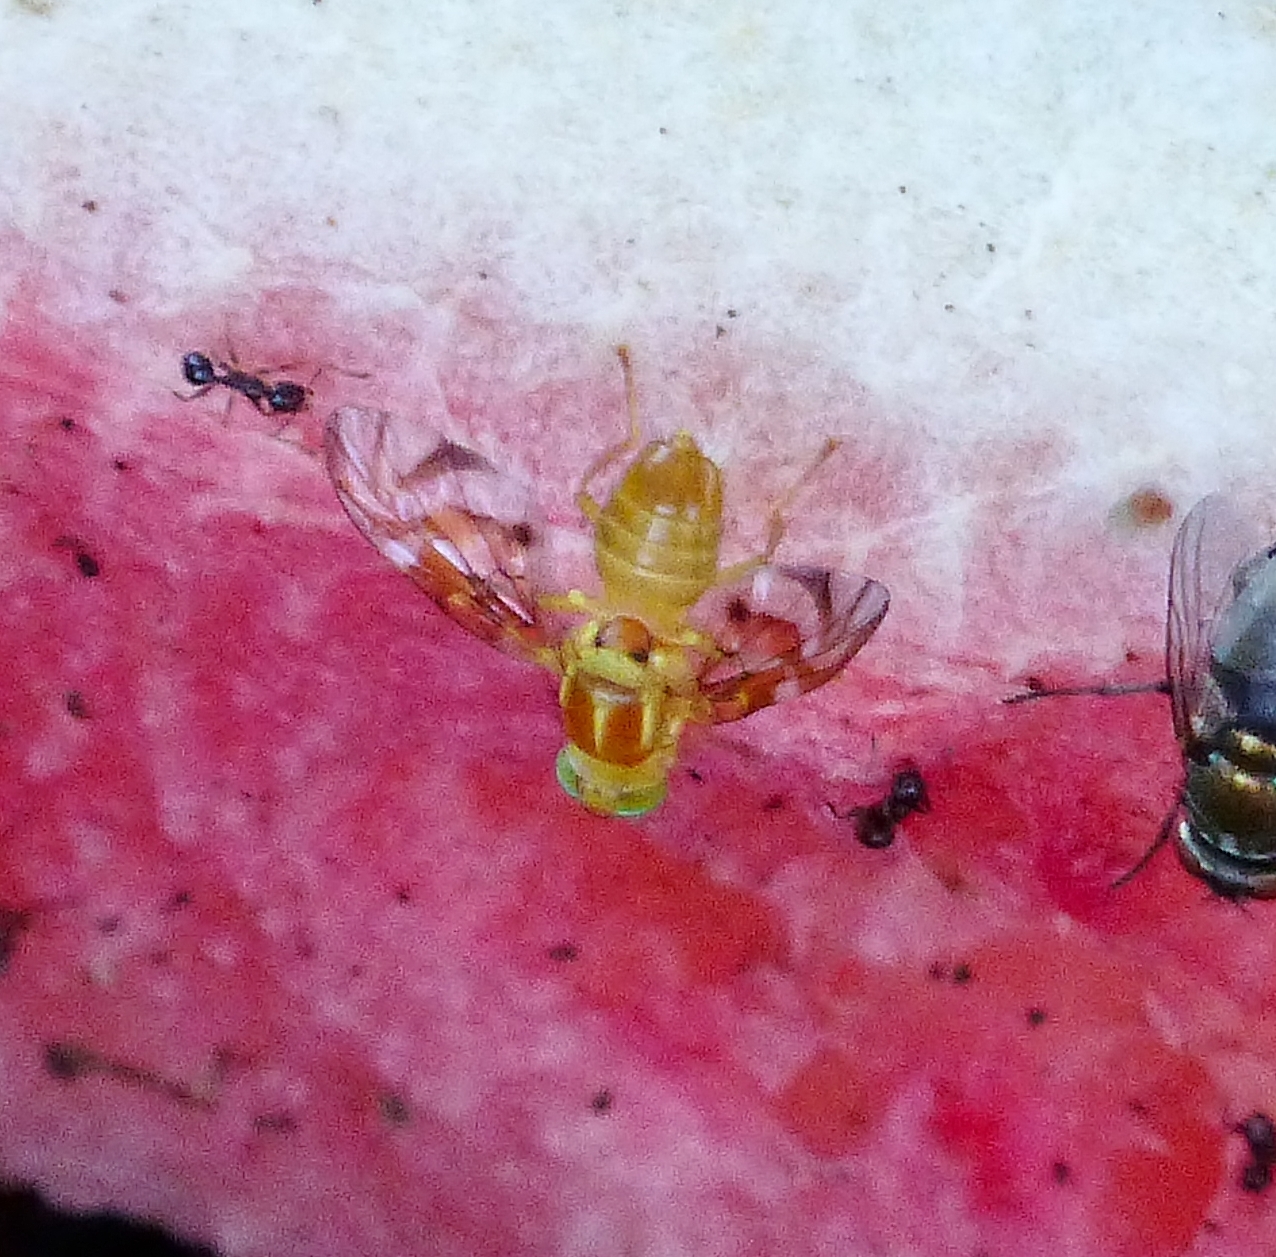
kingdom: Animalia
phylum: Arthropoda
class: Insecta
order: Diptera
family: Tephritidae
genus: Anastrepha
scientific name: Anastrepha ludens
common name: Mexican fruit fly
